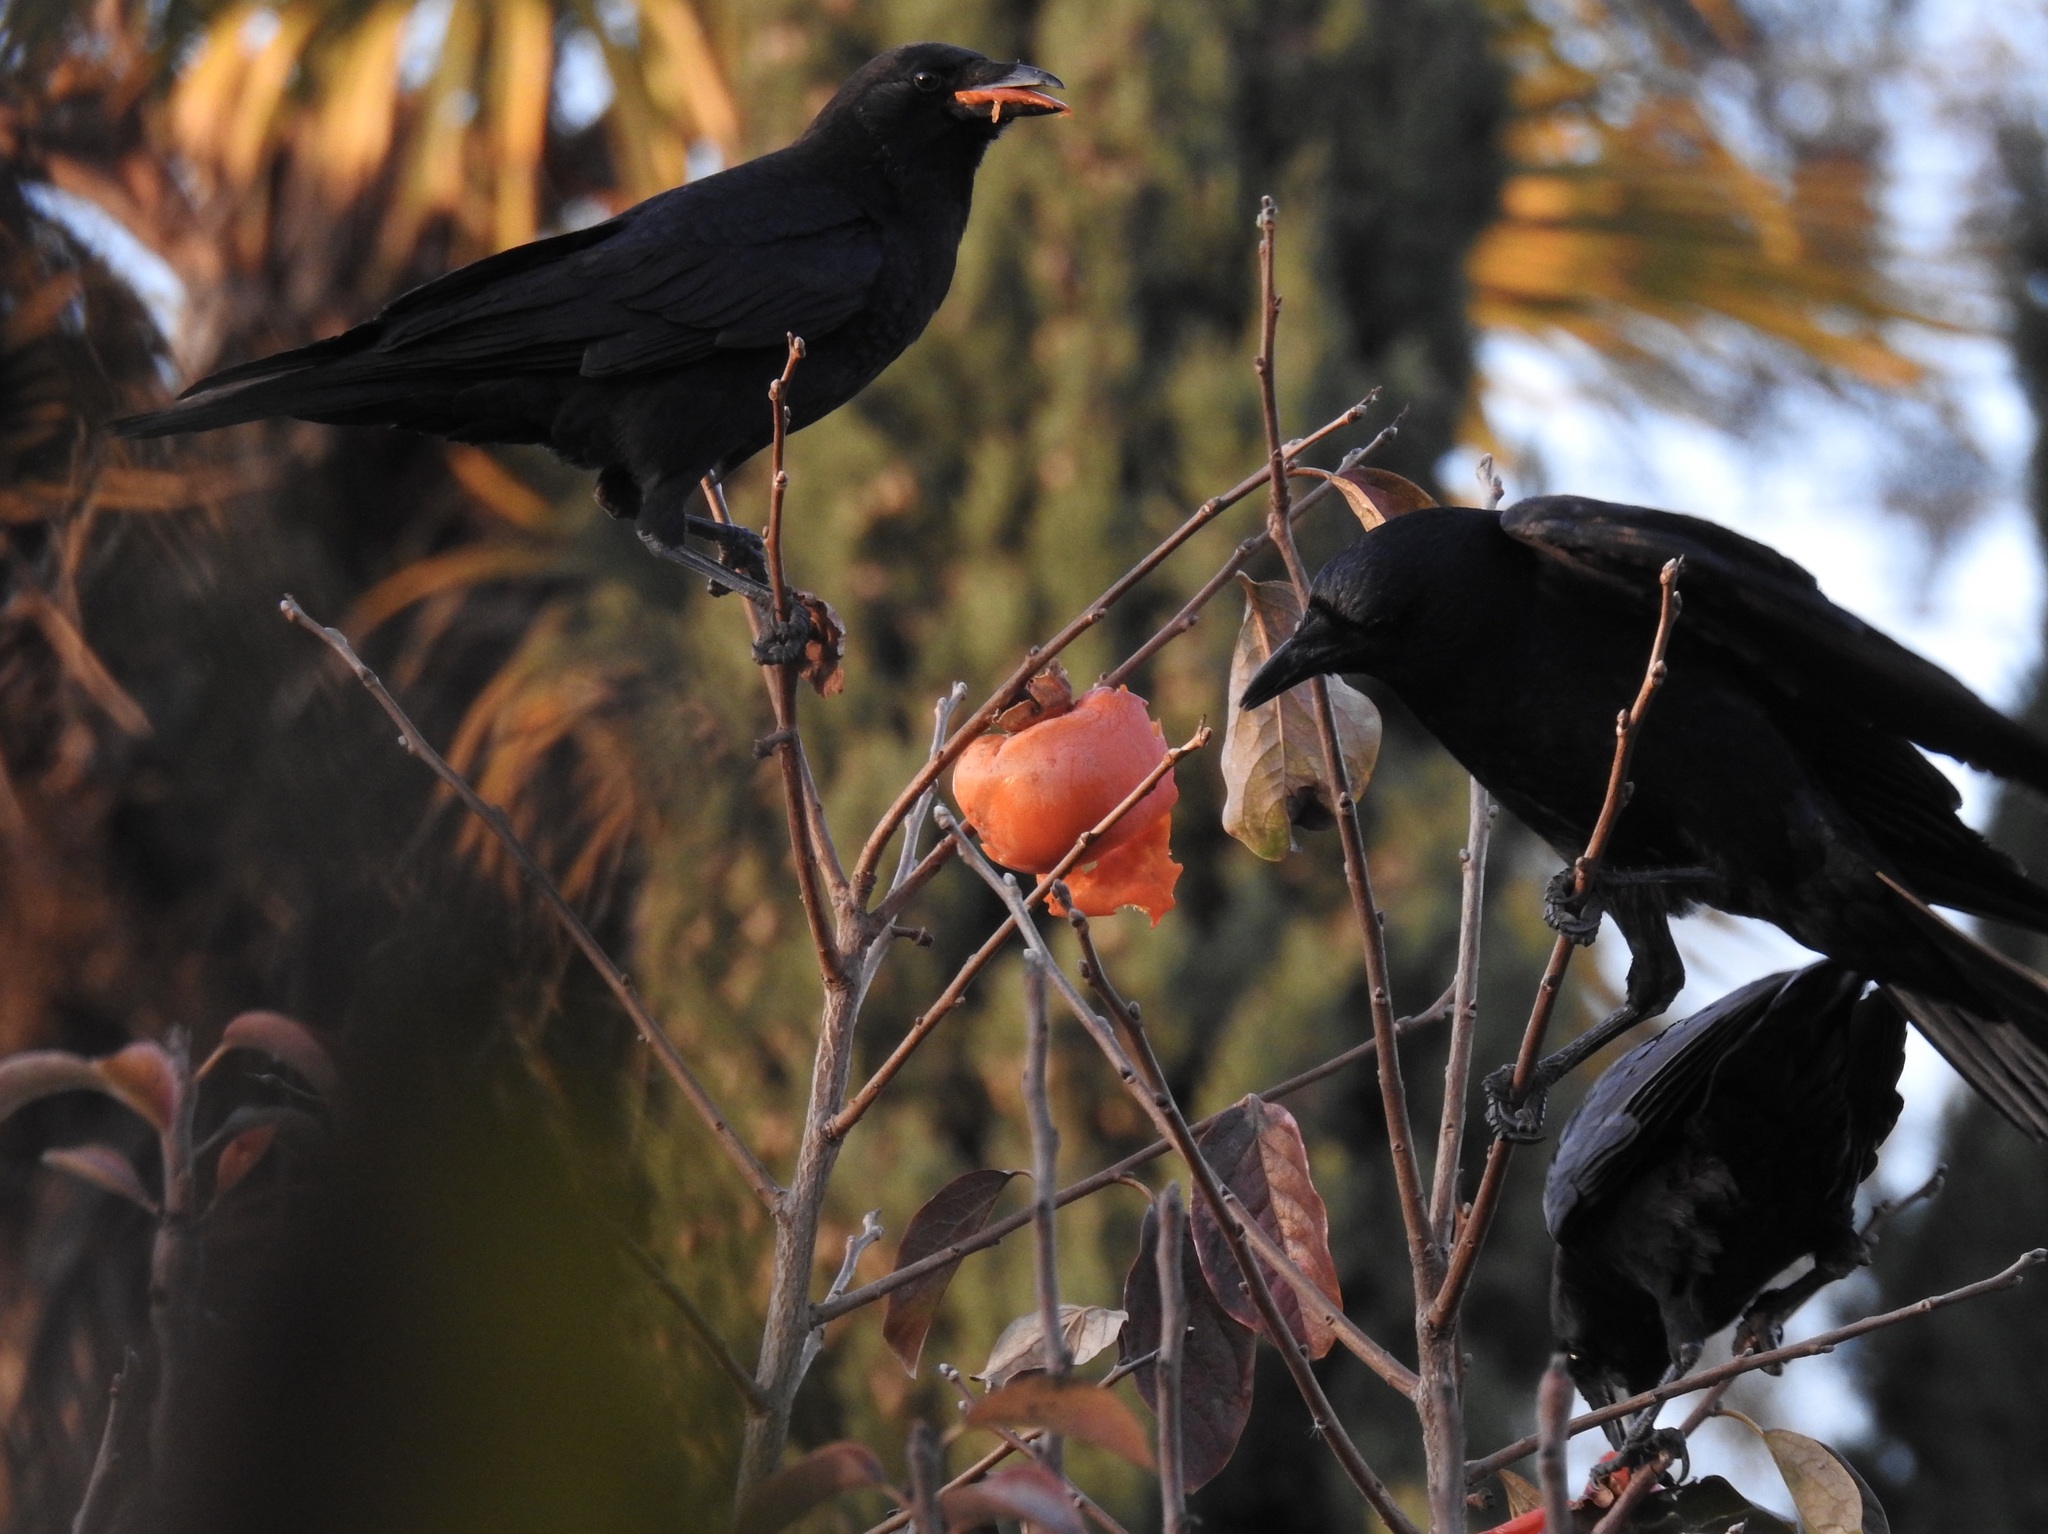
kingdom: Animalia
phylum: Chordata
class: Aves
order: Passeriformes
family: Corvidae
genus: Corvus
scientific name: Corvus brachyrhynchos
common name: American crow
